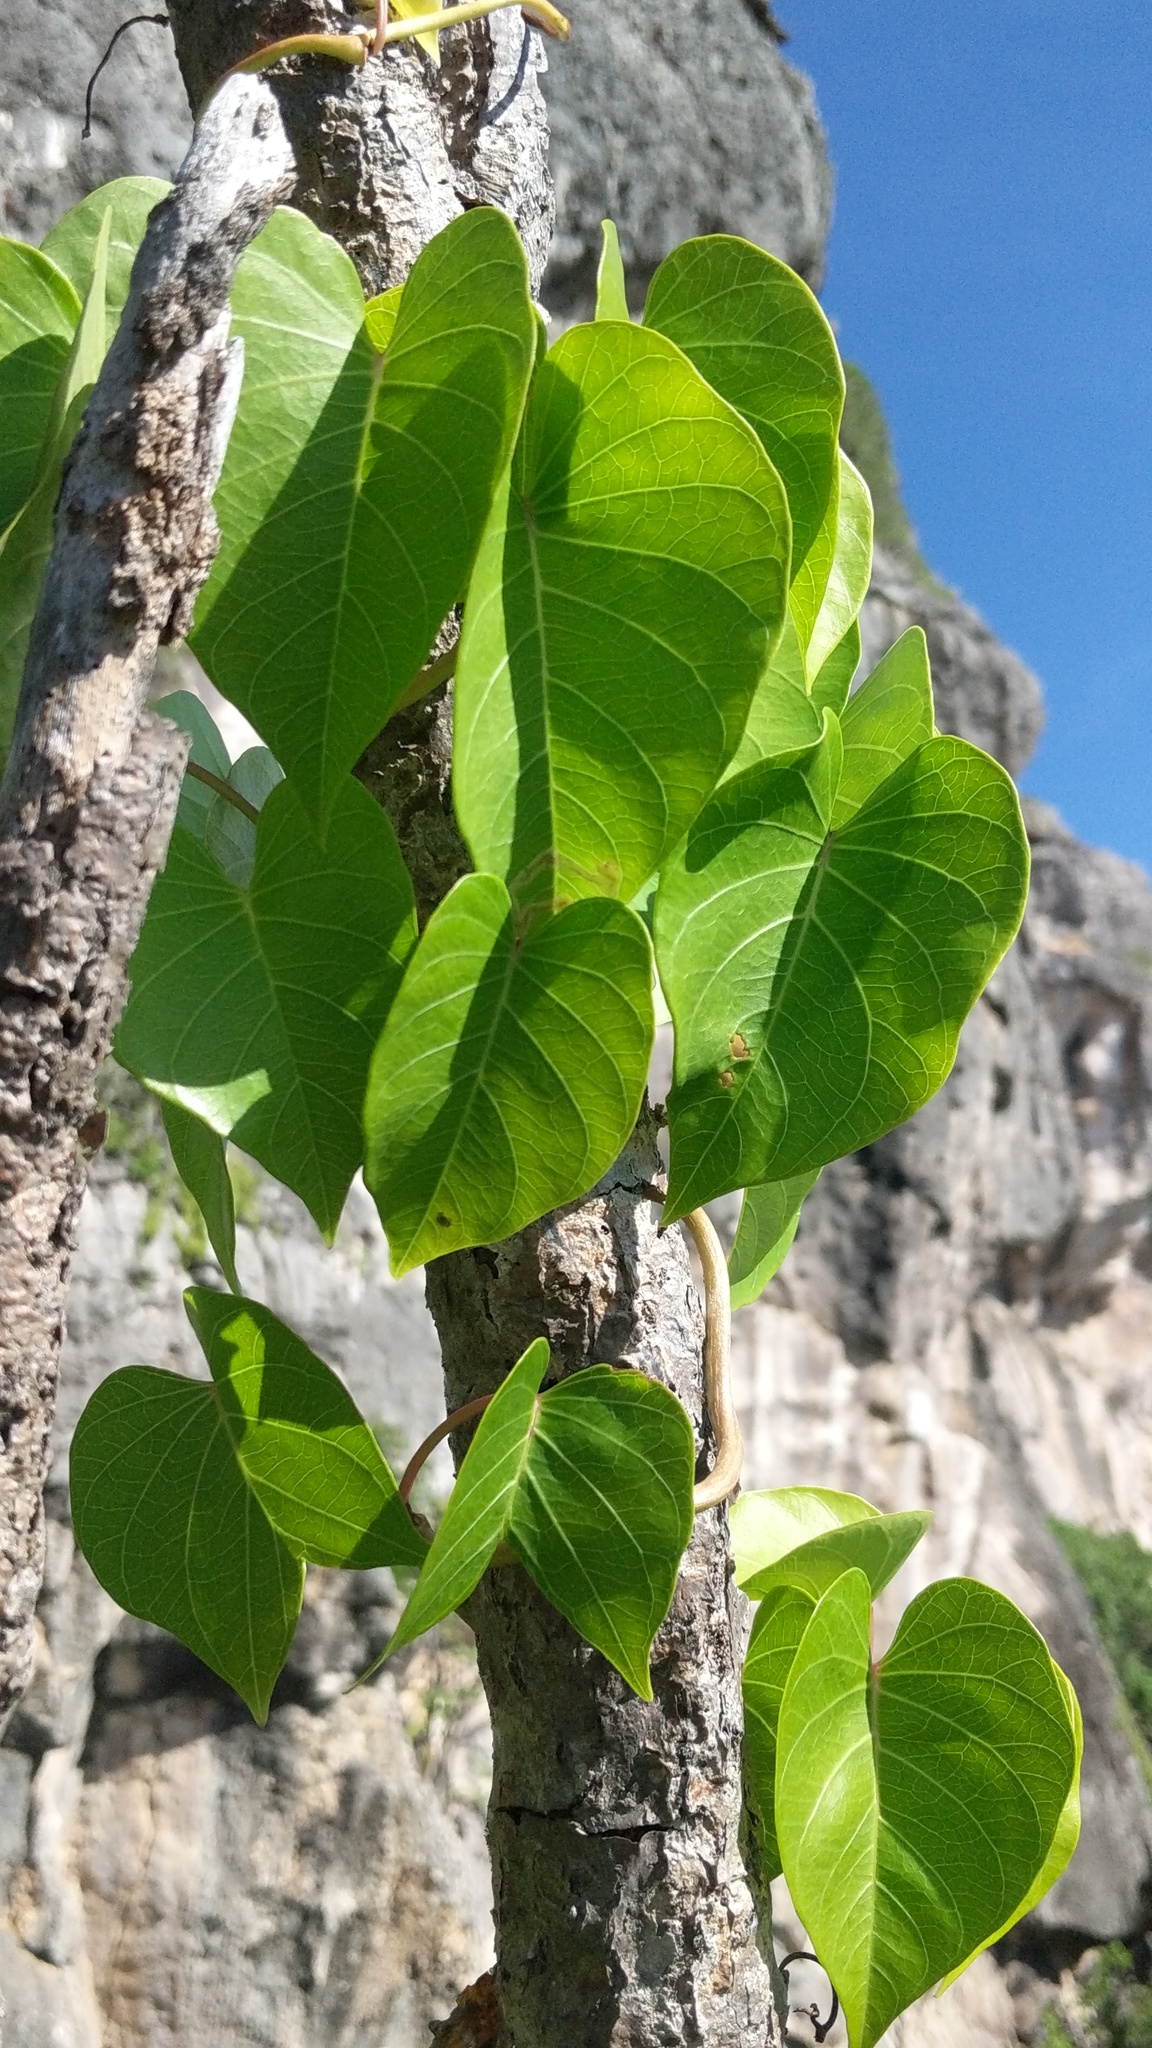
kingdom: Plantae
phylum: Tracheophyta
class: Magnoliopsida
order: Solanales
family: Convolvulaceae
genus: Ipomoea
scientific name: Ipomoea violacea
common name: Beach moonflower
